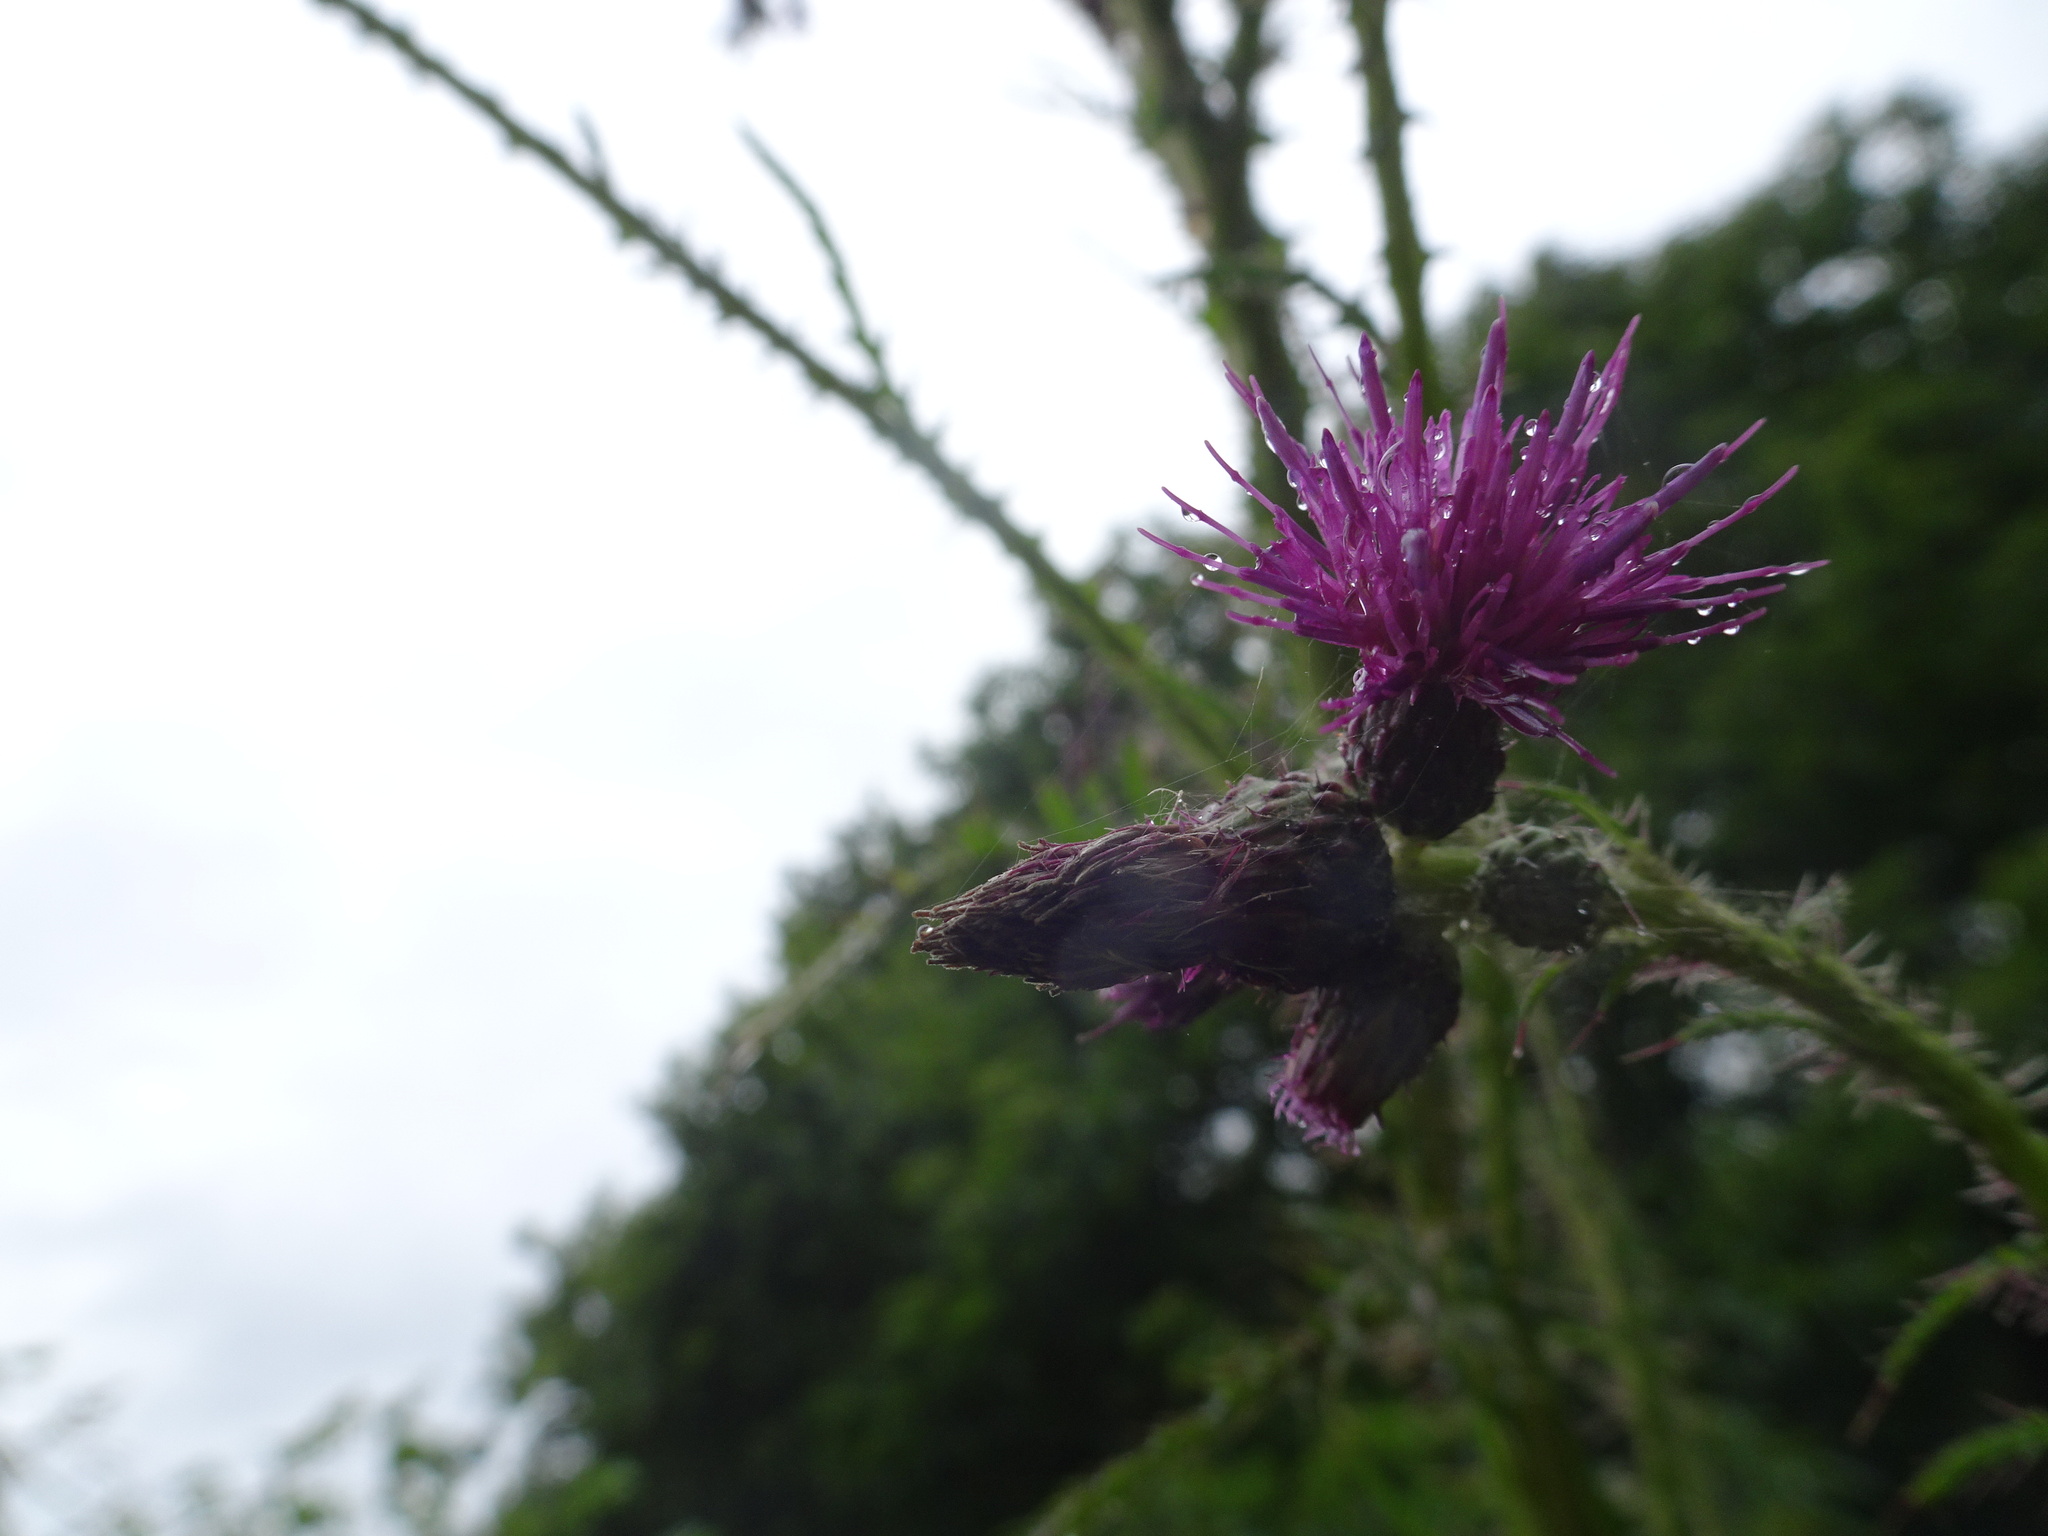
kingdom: Plantae
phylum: Tracheophyta
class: Magnoliopsida
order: Asterales
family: Asteraceae
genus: Cirsium
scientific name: Cirsium palustre
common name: Marsh thistle
